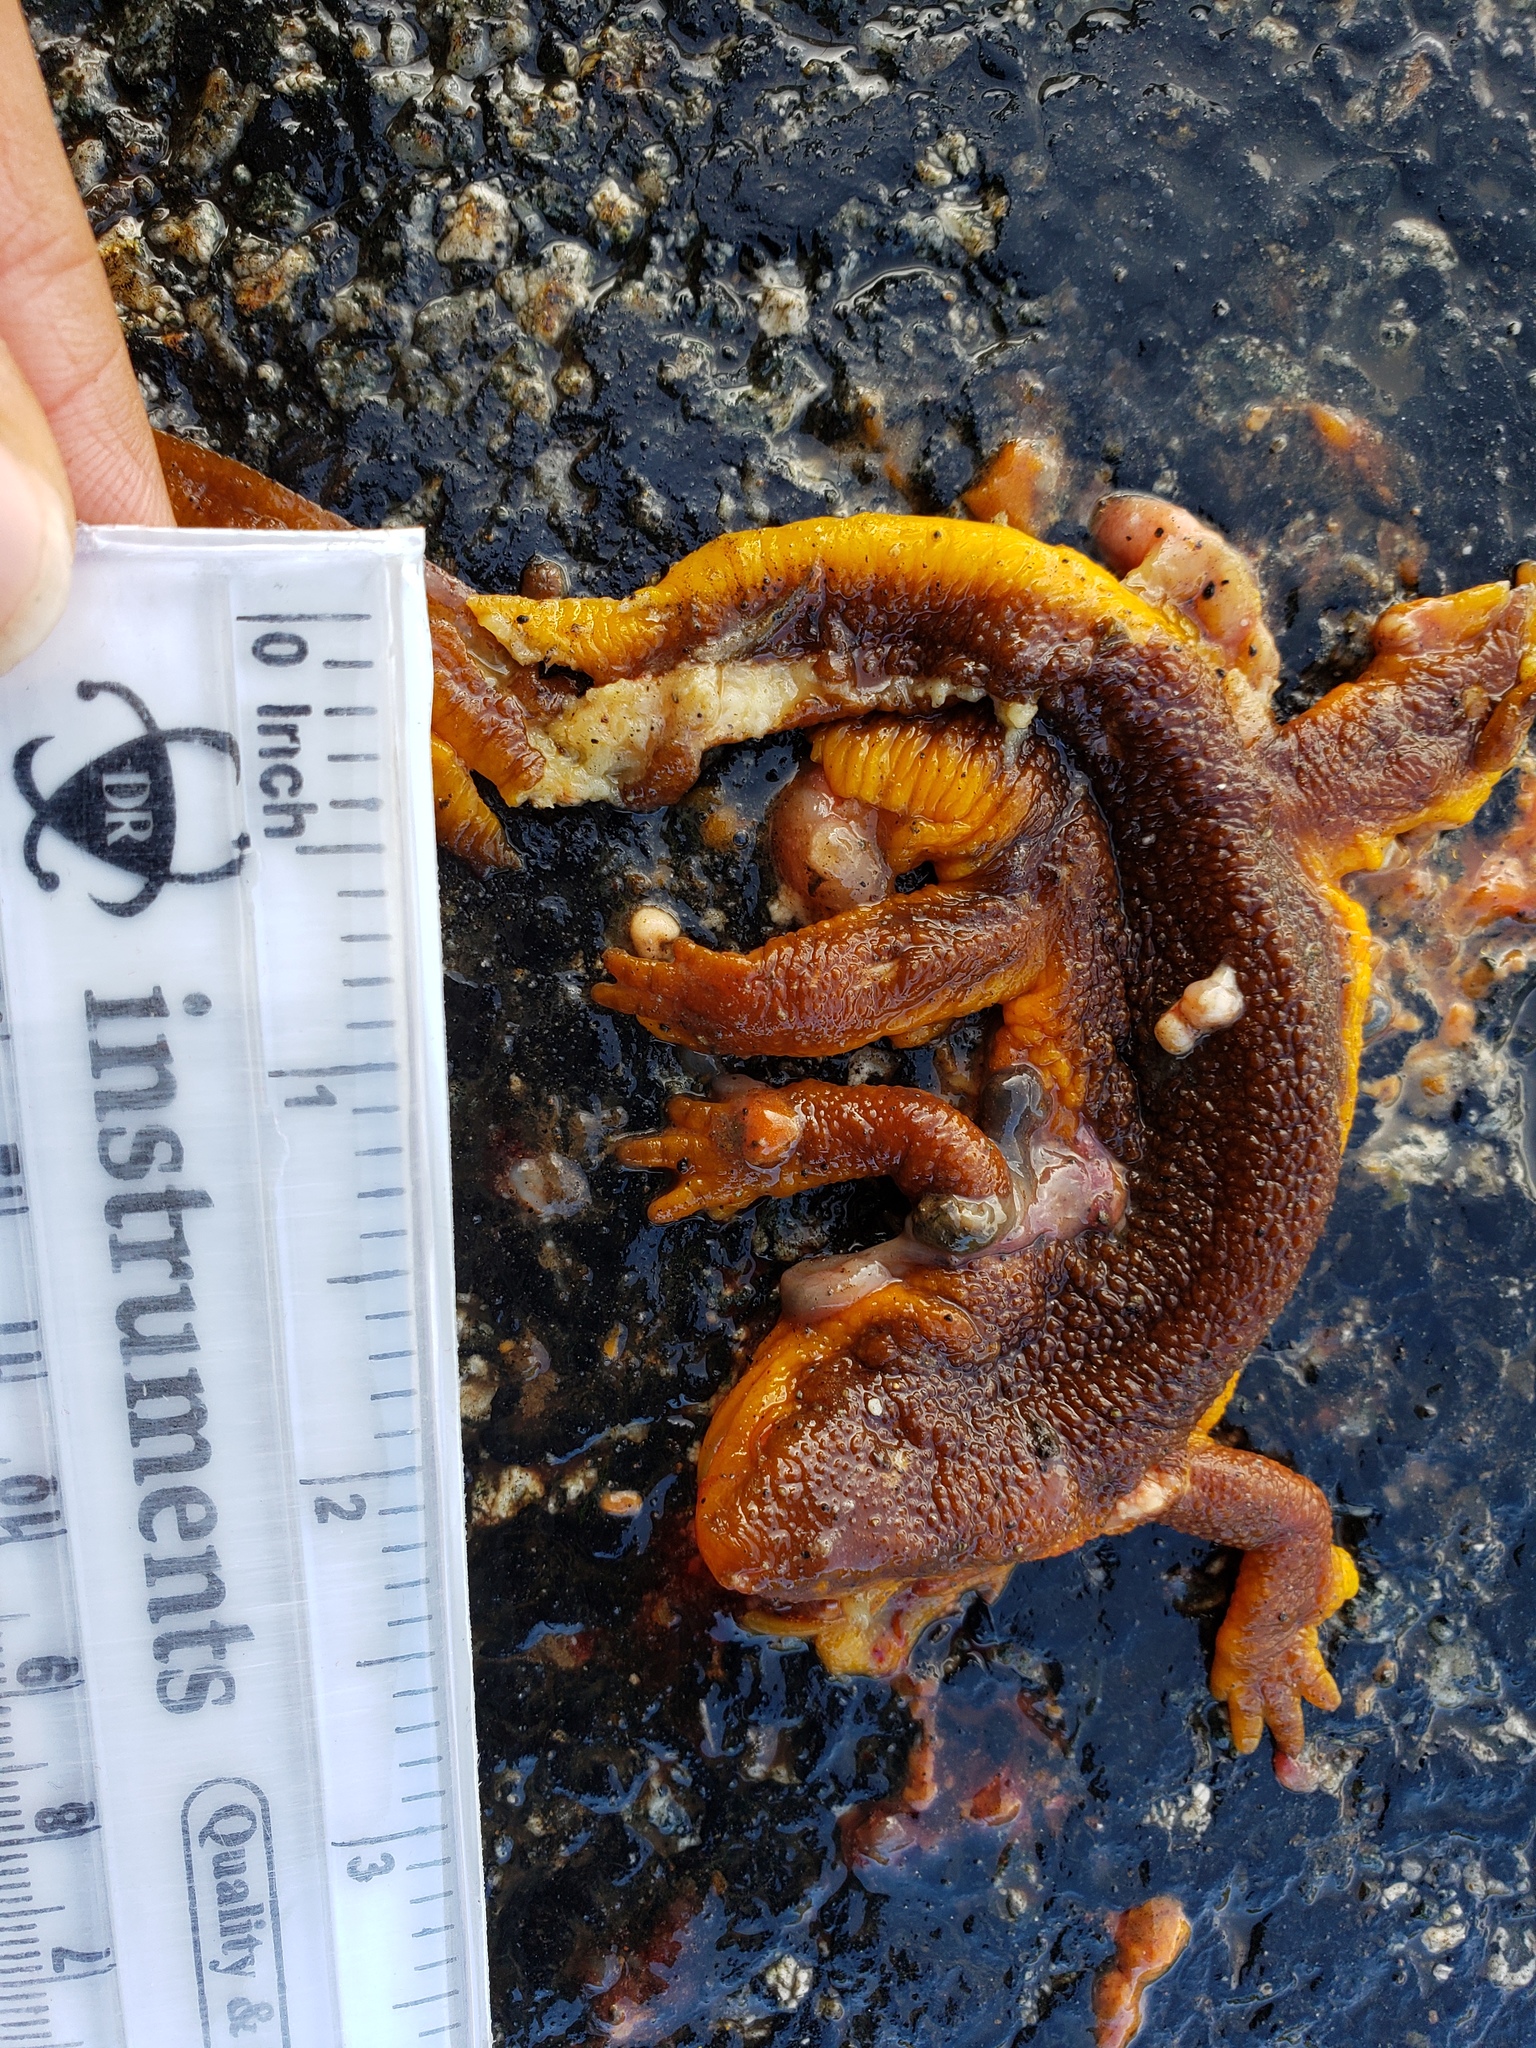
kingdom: Animalia
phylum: Chordata
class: Amphibia
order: Caudata
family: Salamandridae
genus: Taricha
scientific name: Taricha torosa
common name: California newt
